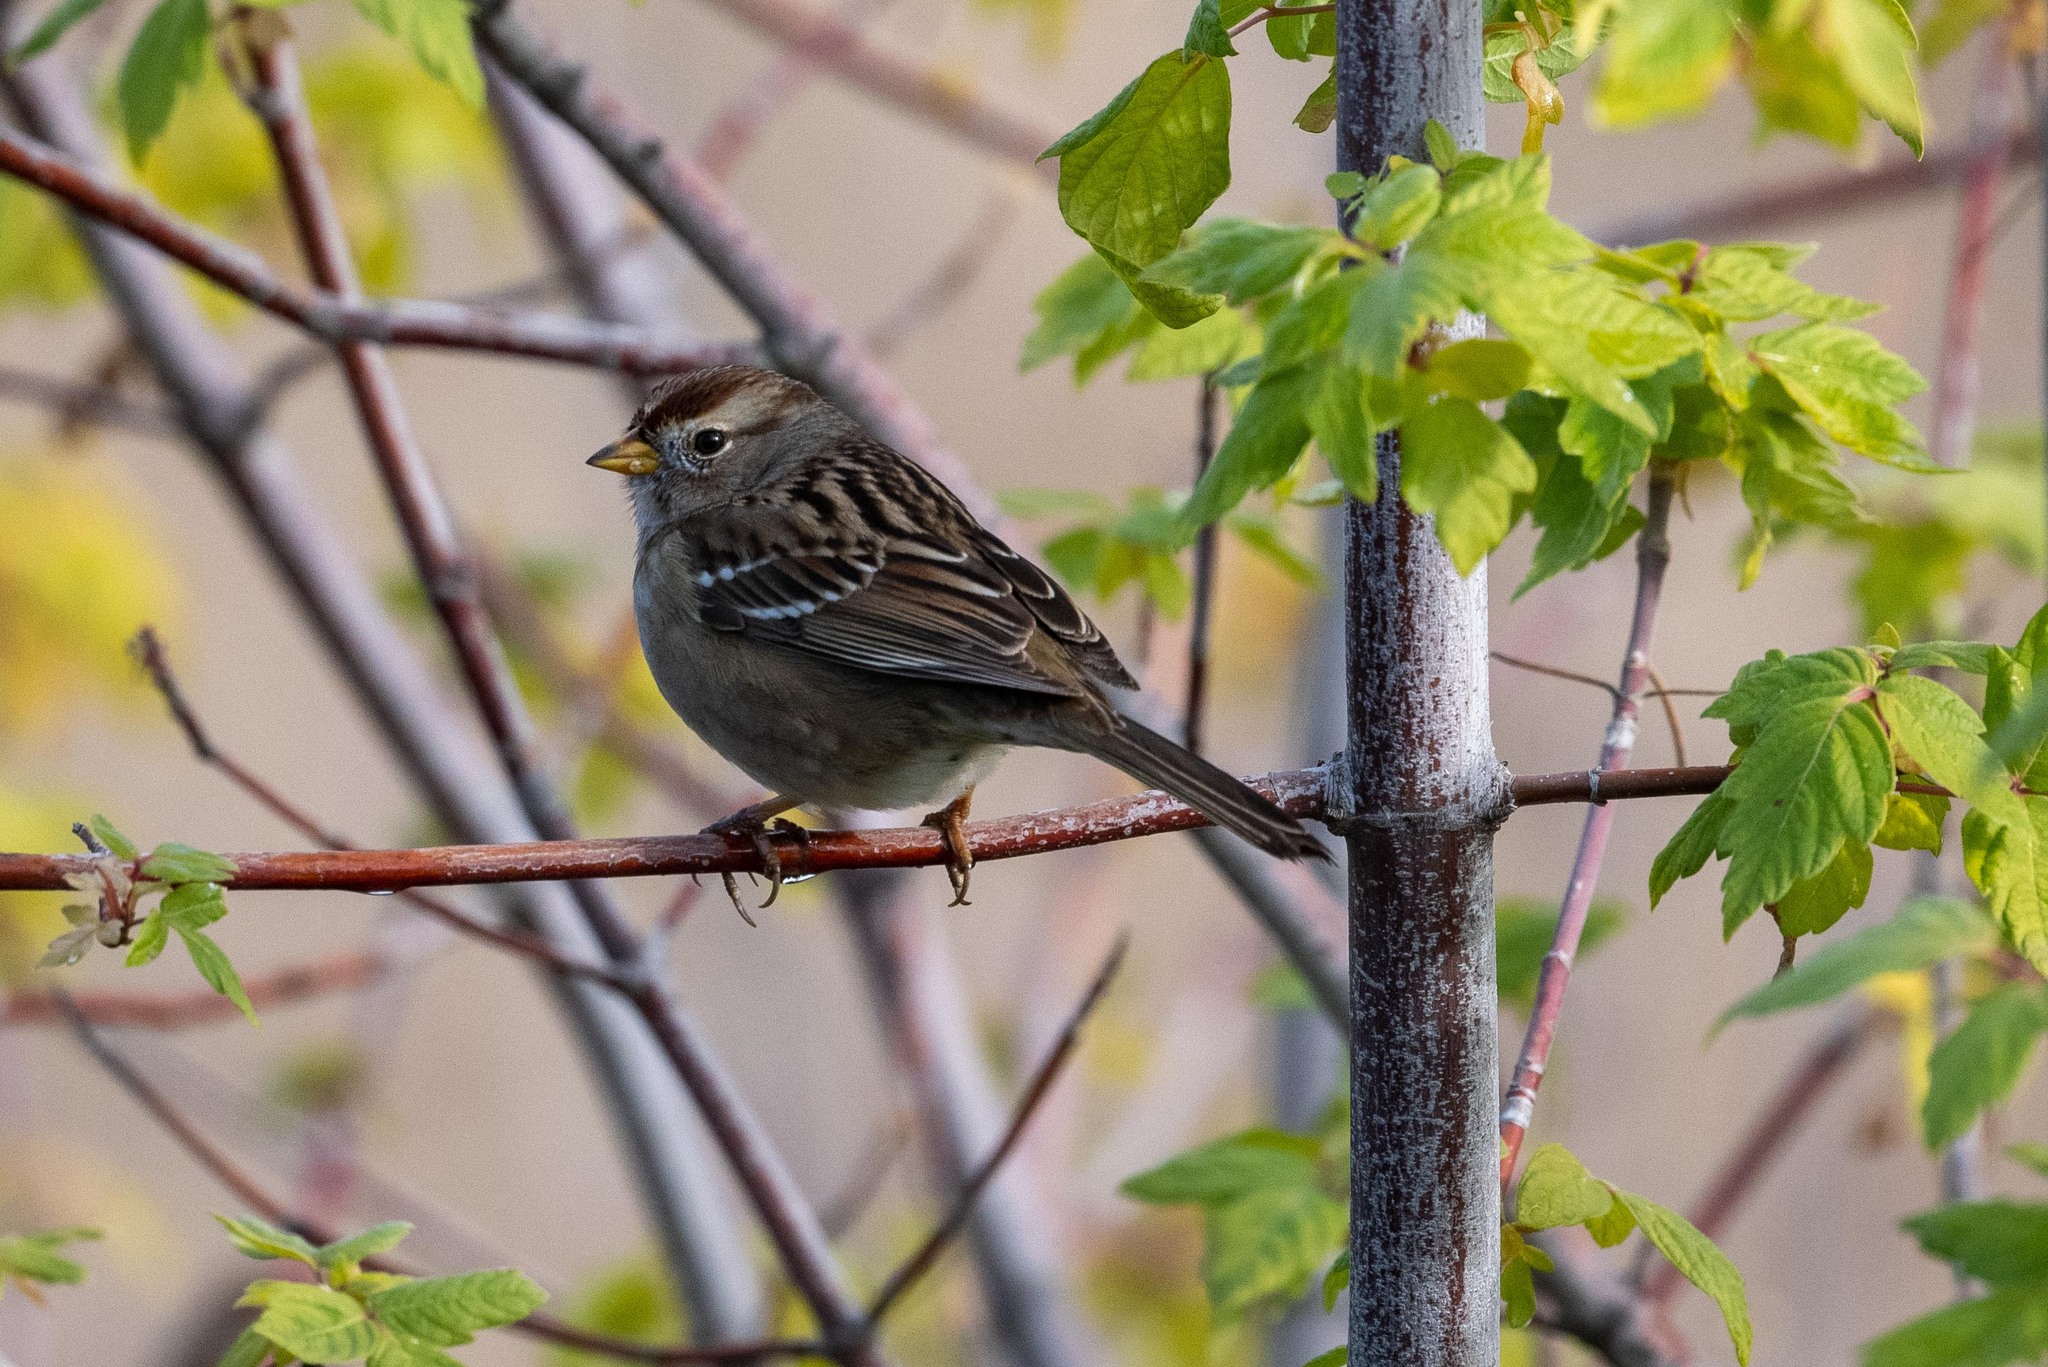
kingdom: Animalia
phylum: Chordata
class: Aves
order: Passeriformes
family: Passerellidae
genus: Zonotrichia
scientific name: Zonotrichia leucophrys
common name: White-crowned sparrow
